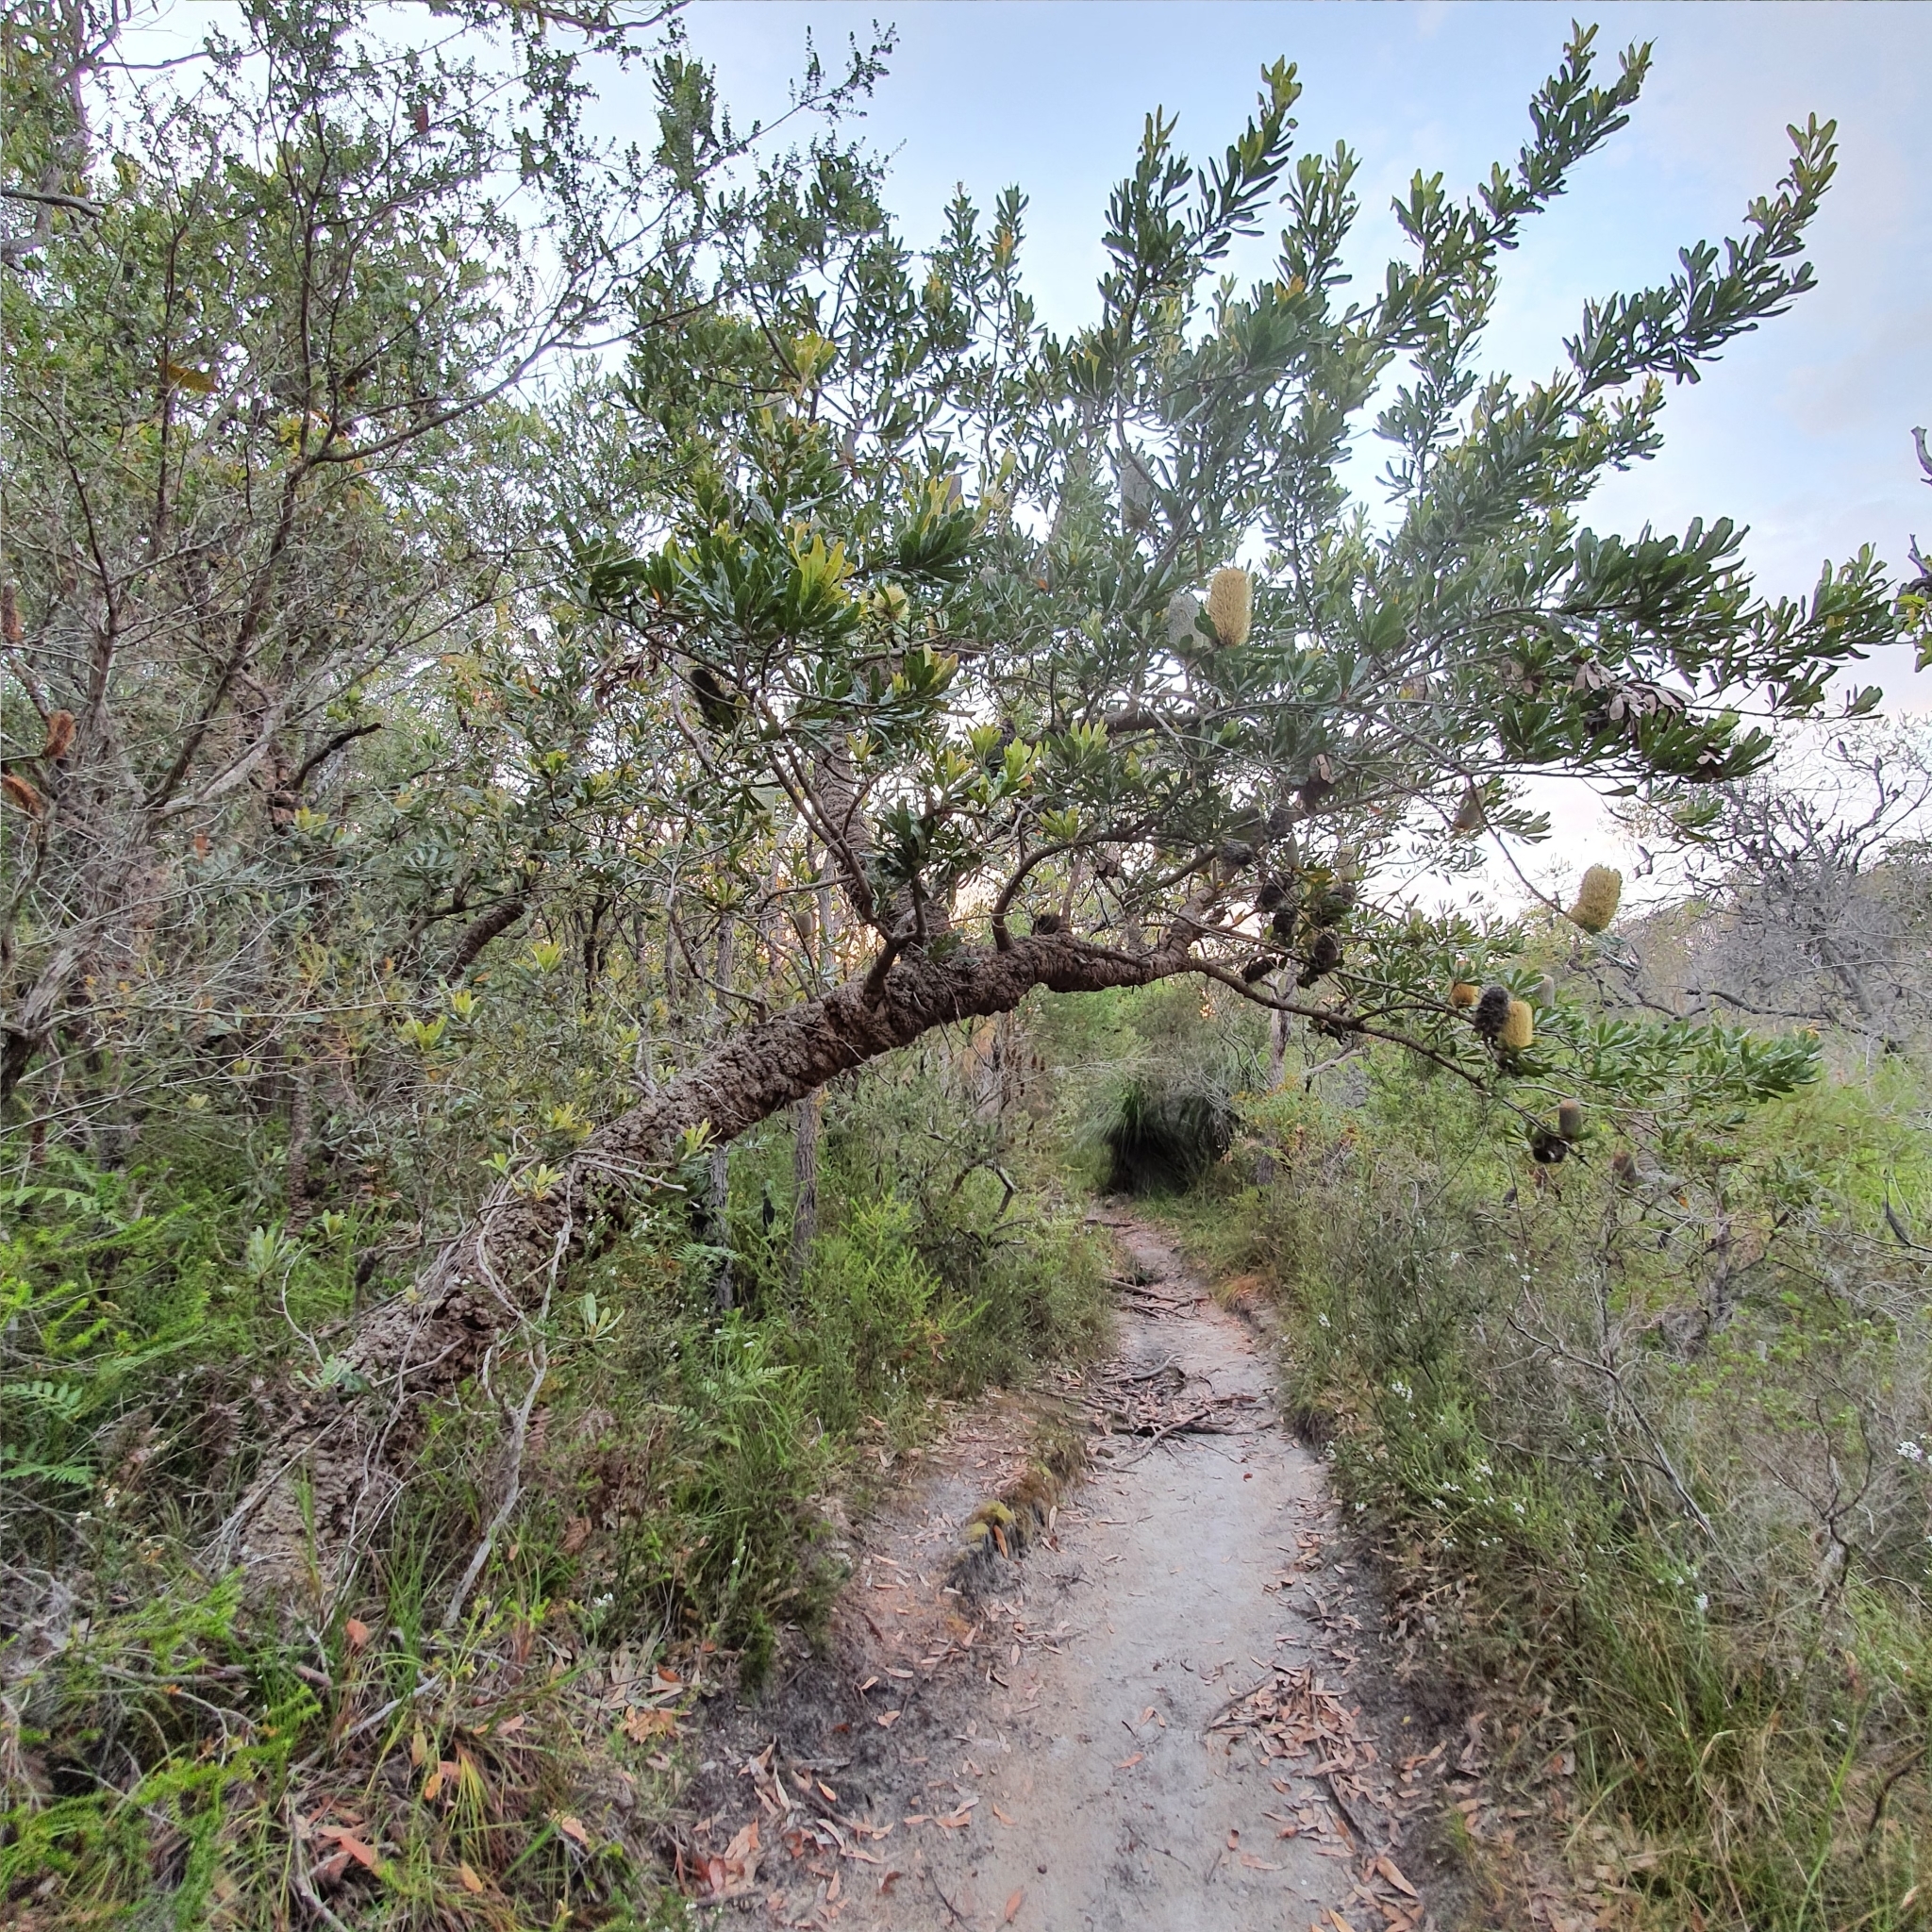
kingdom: Plantae
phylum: Tracheophyta
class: Magnoliopsida
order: Proteales
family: Proteaceae
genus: Banksia
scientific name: Banksia serrata
